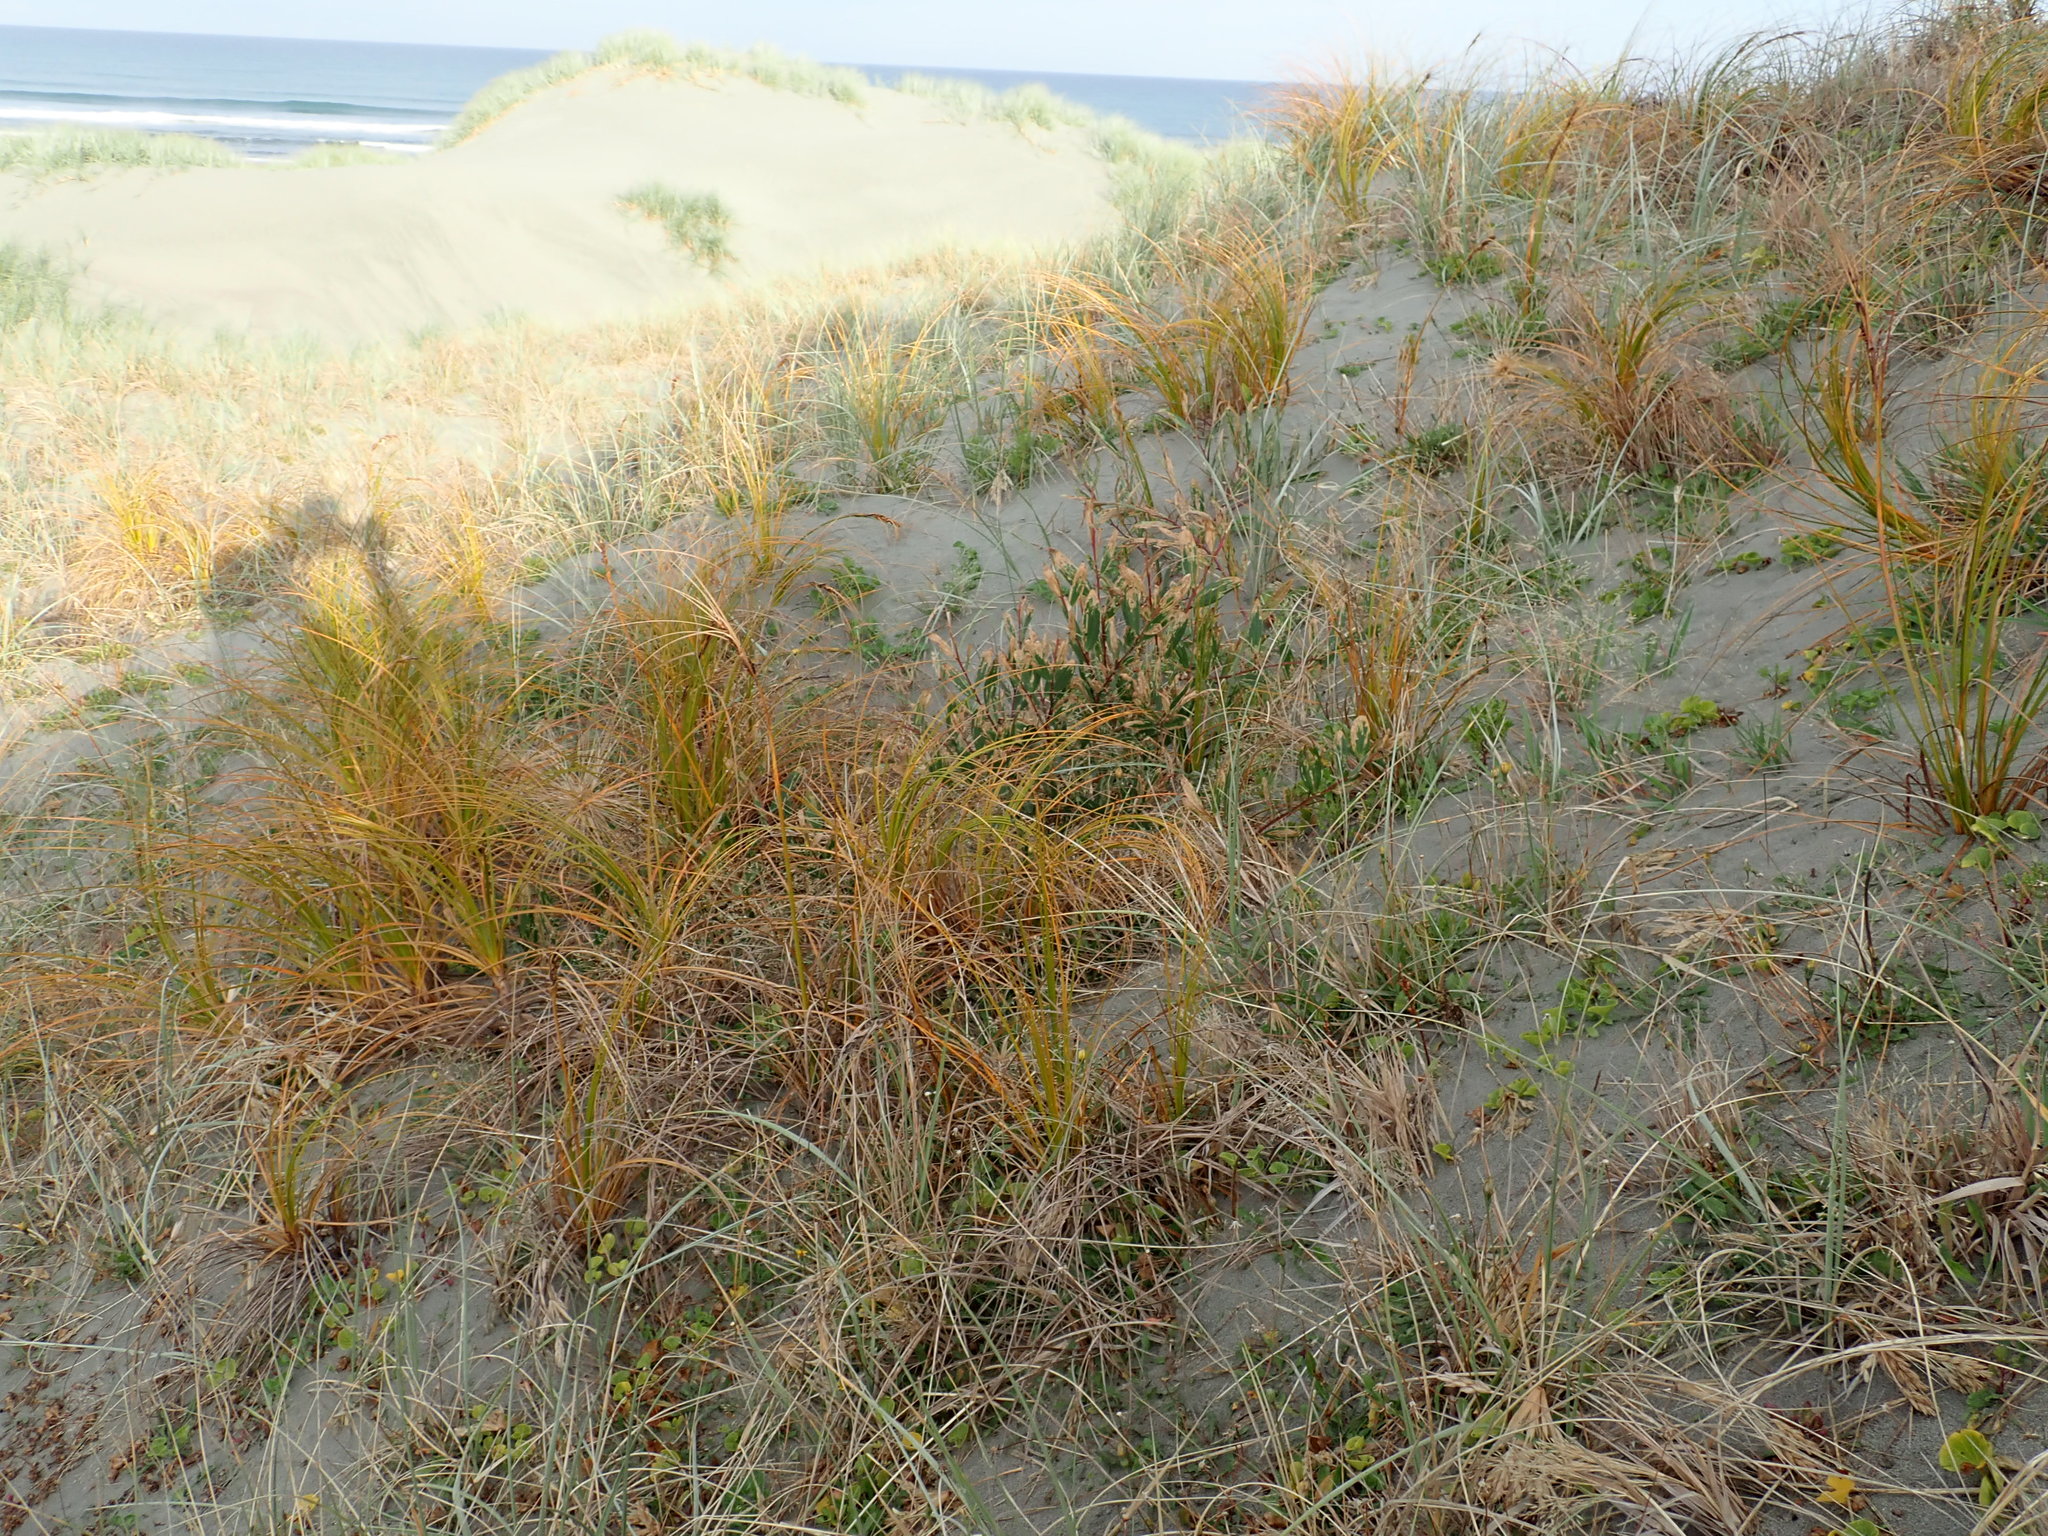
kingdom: Plantae
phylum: Tracheophyta
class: Liliopsida
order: Poales
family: Cyperaceae
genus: Ficinia
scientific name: Ficinia spiralis
